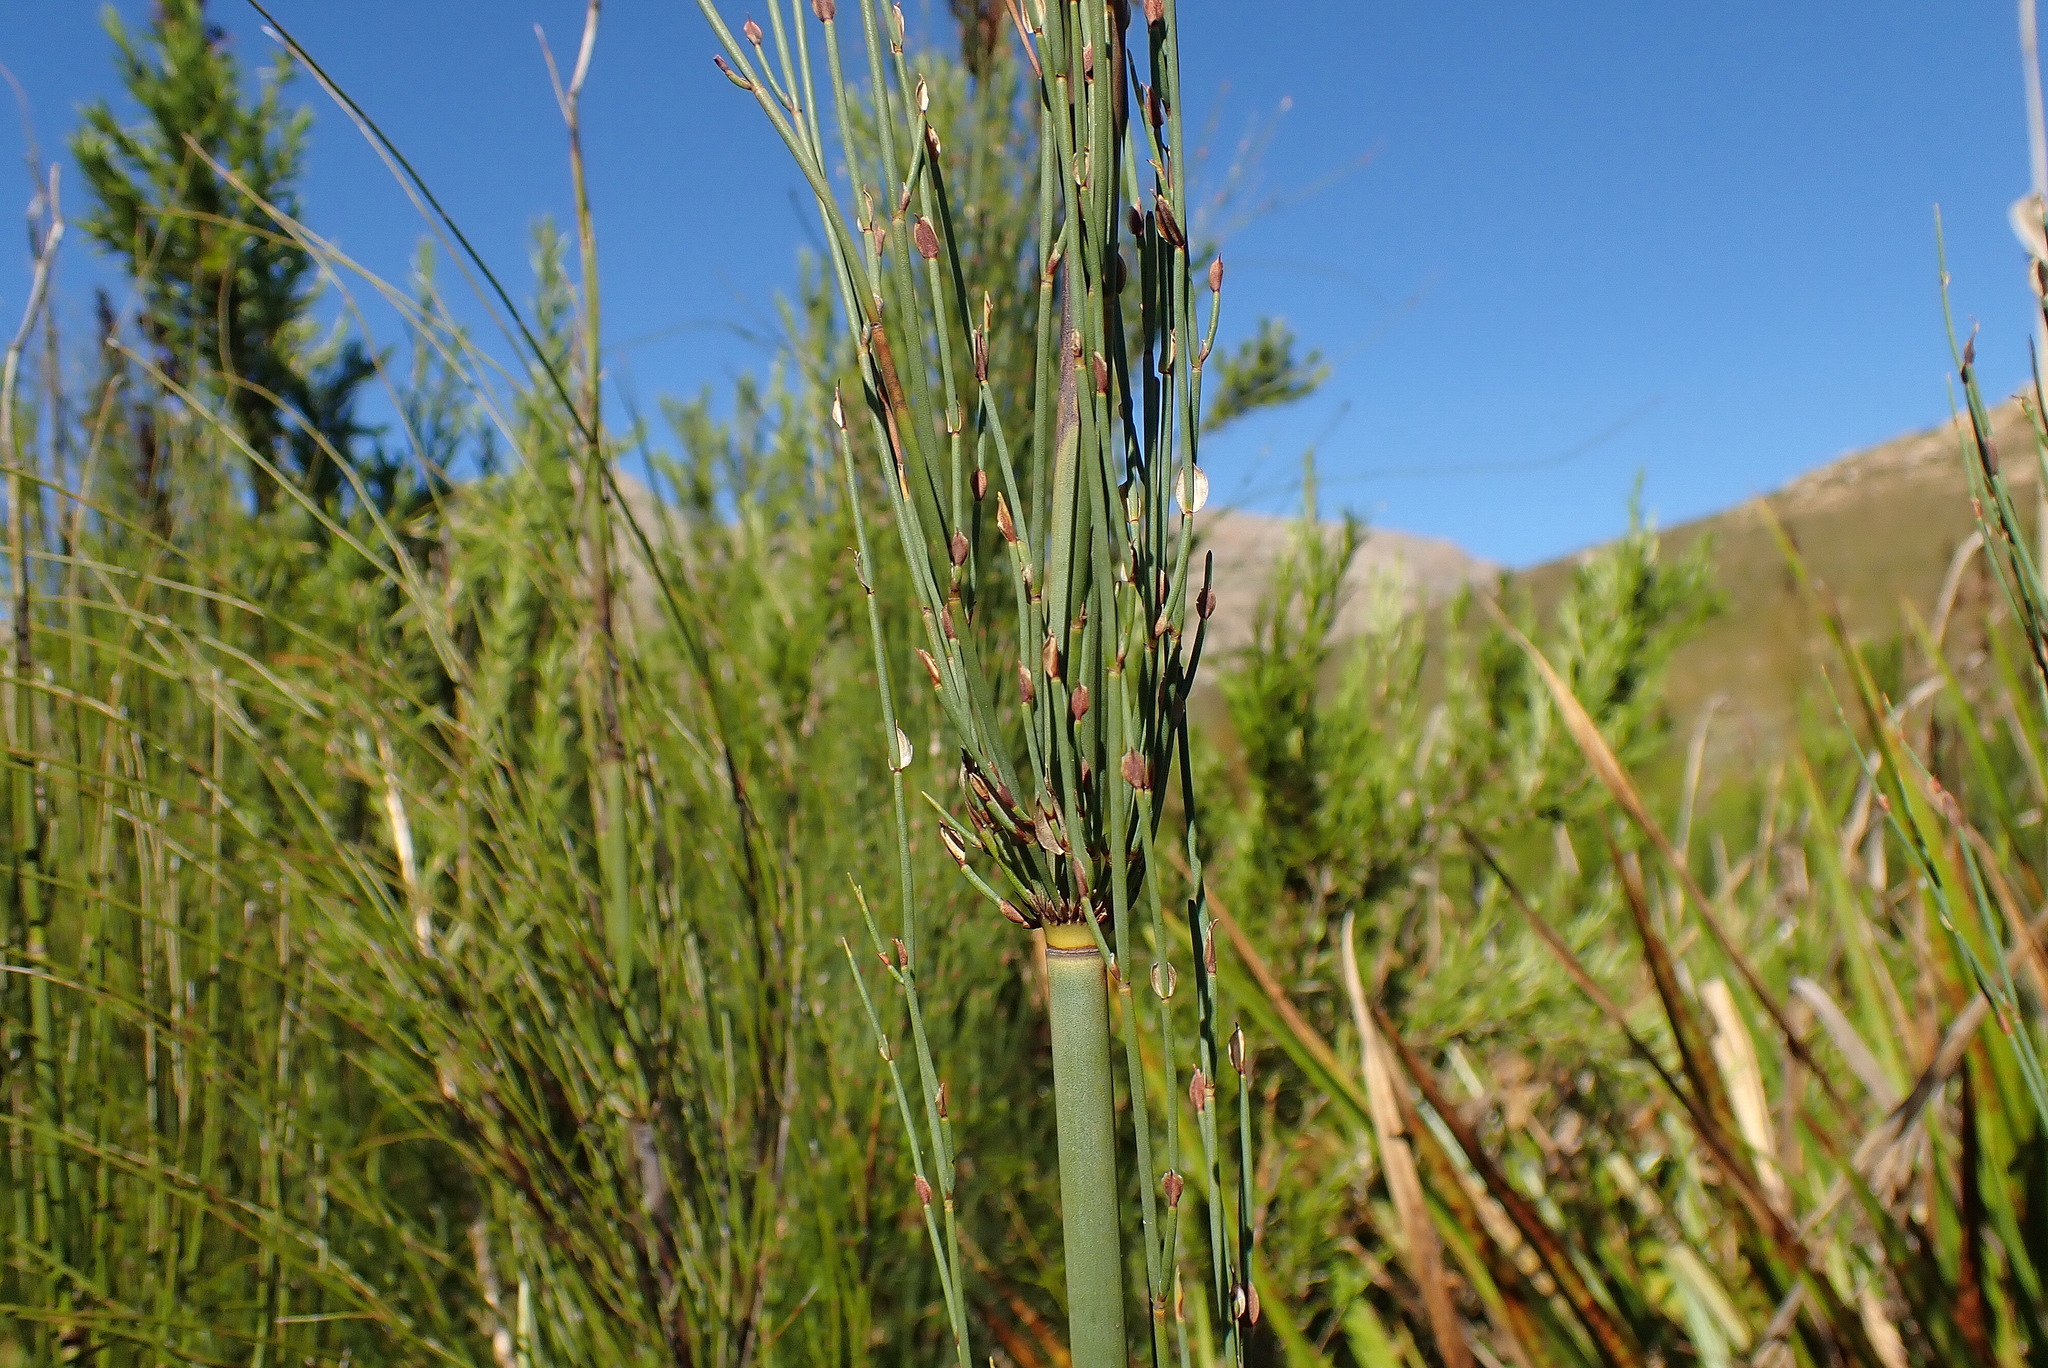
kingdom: Plantae
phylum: Tracheophyta
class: Liliopsida
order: Poales
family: Restionaceae
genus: Elegia
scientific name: Elegia capensis
